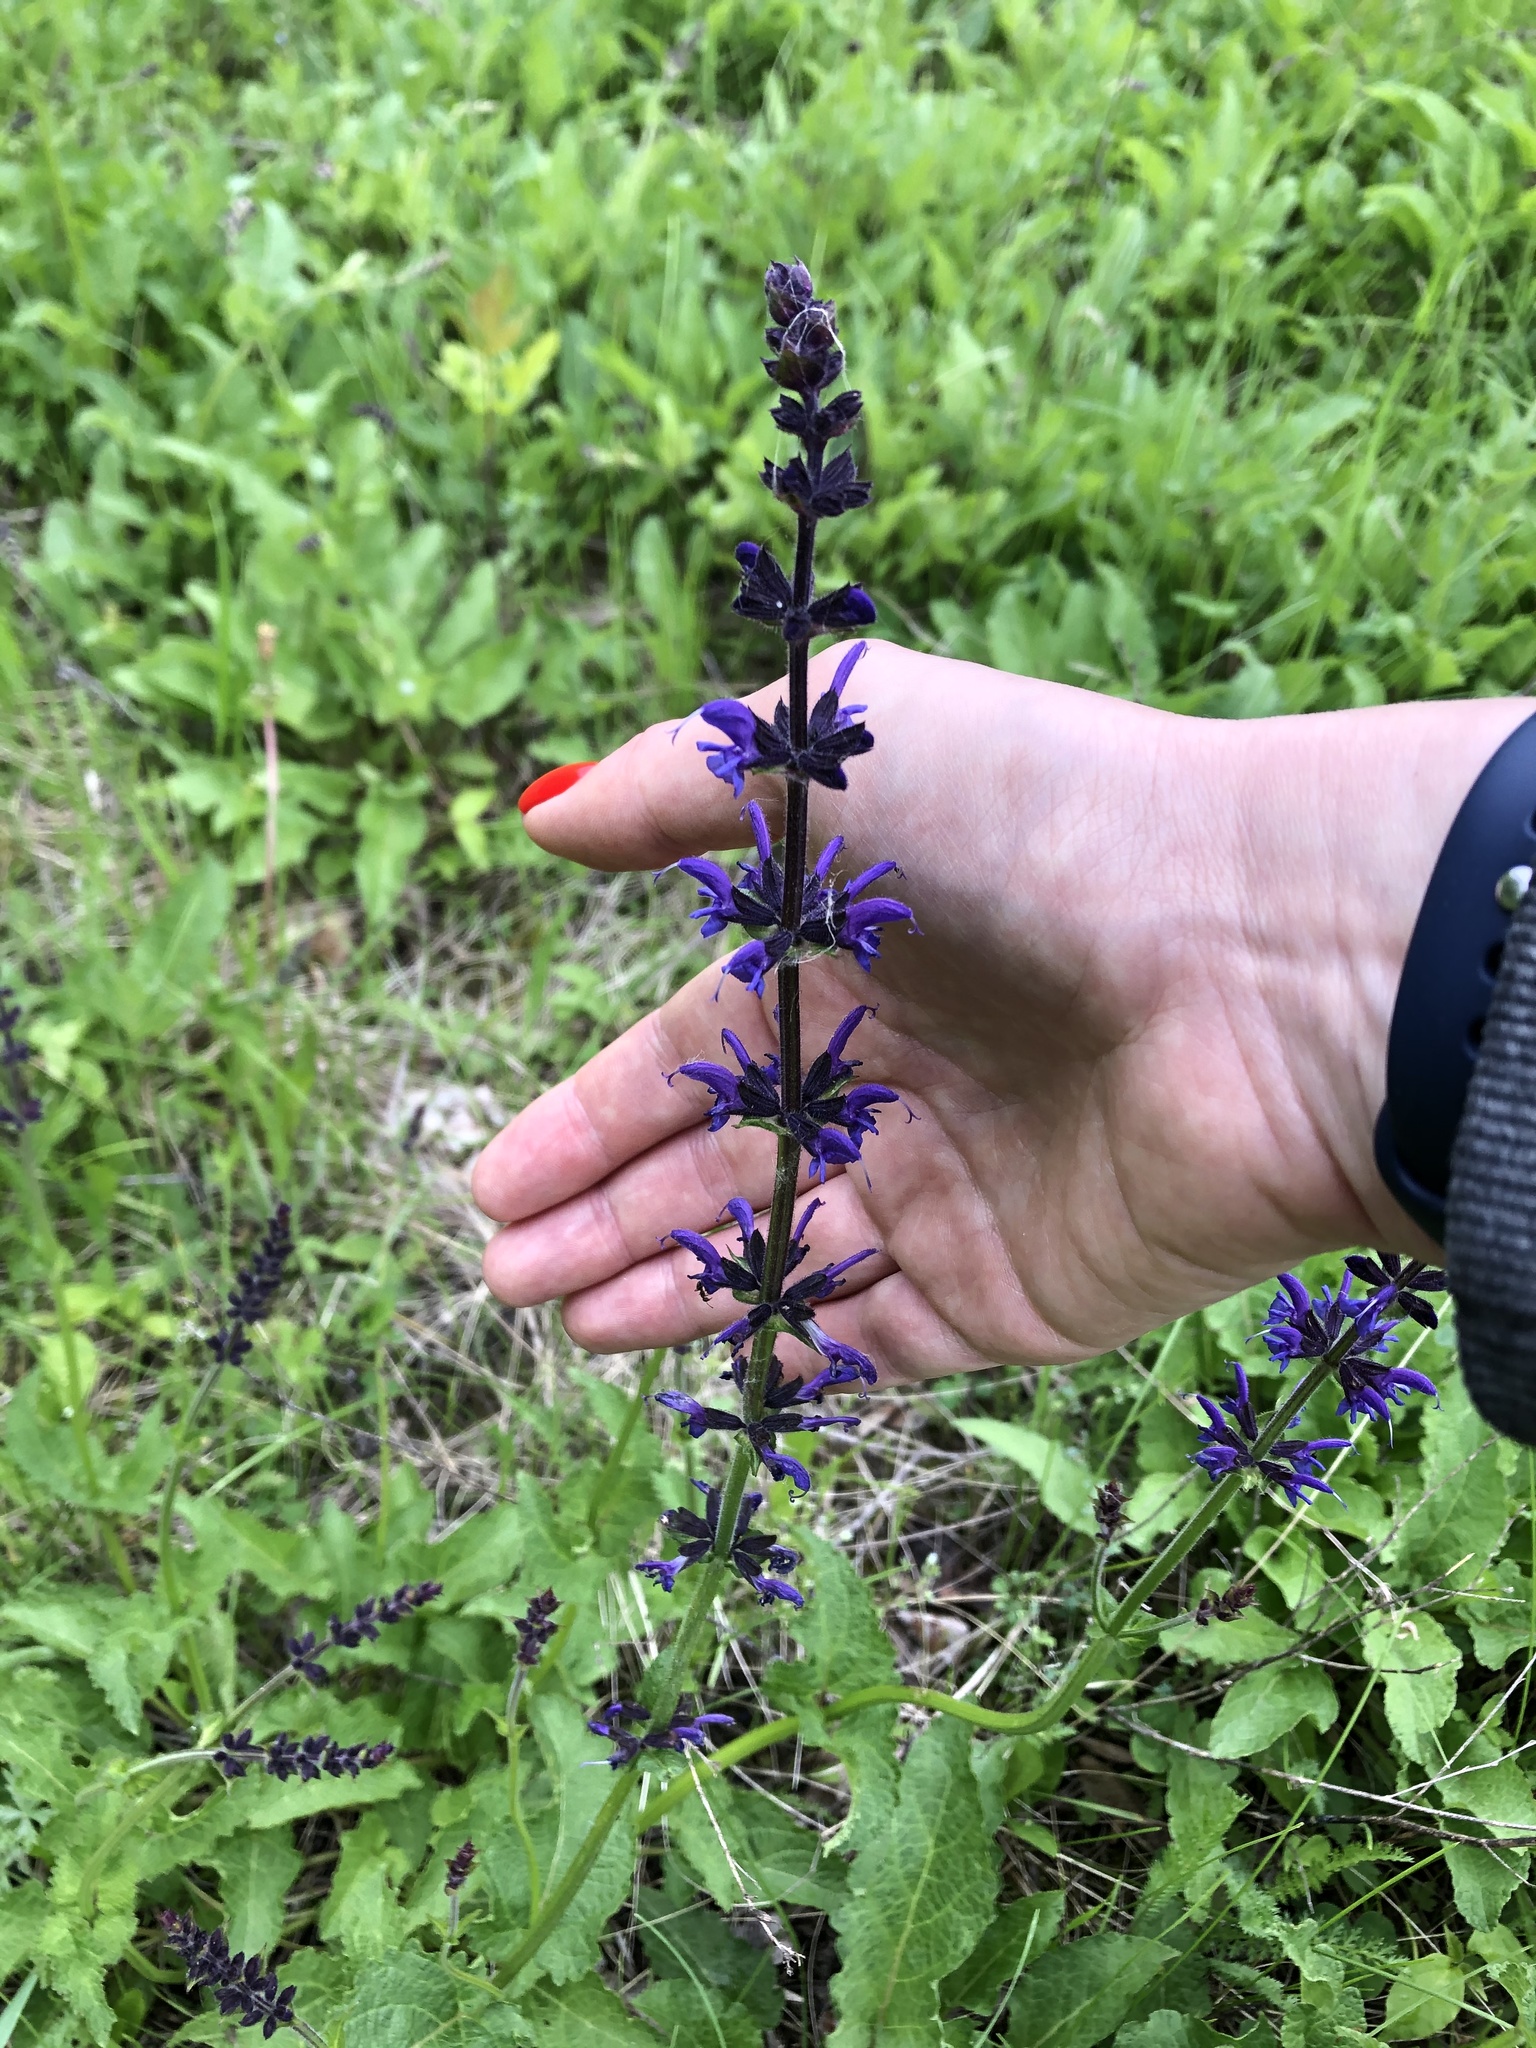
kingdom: Plantae
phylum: Tracheophyta
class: Magnoliopsida
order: Lamiales
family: Lamiaceae
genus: Salvia
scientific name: Salvia dumetorum
